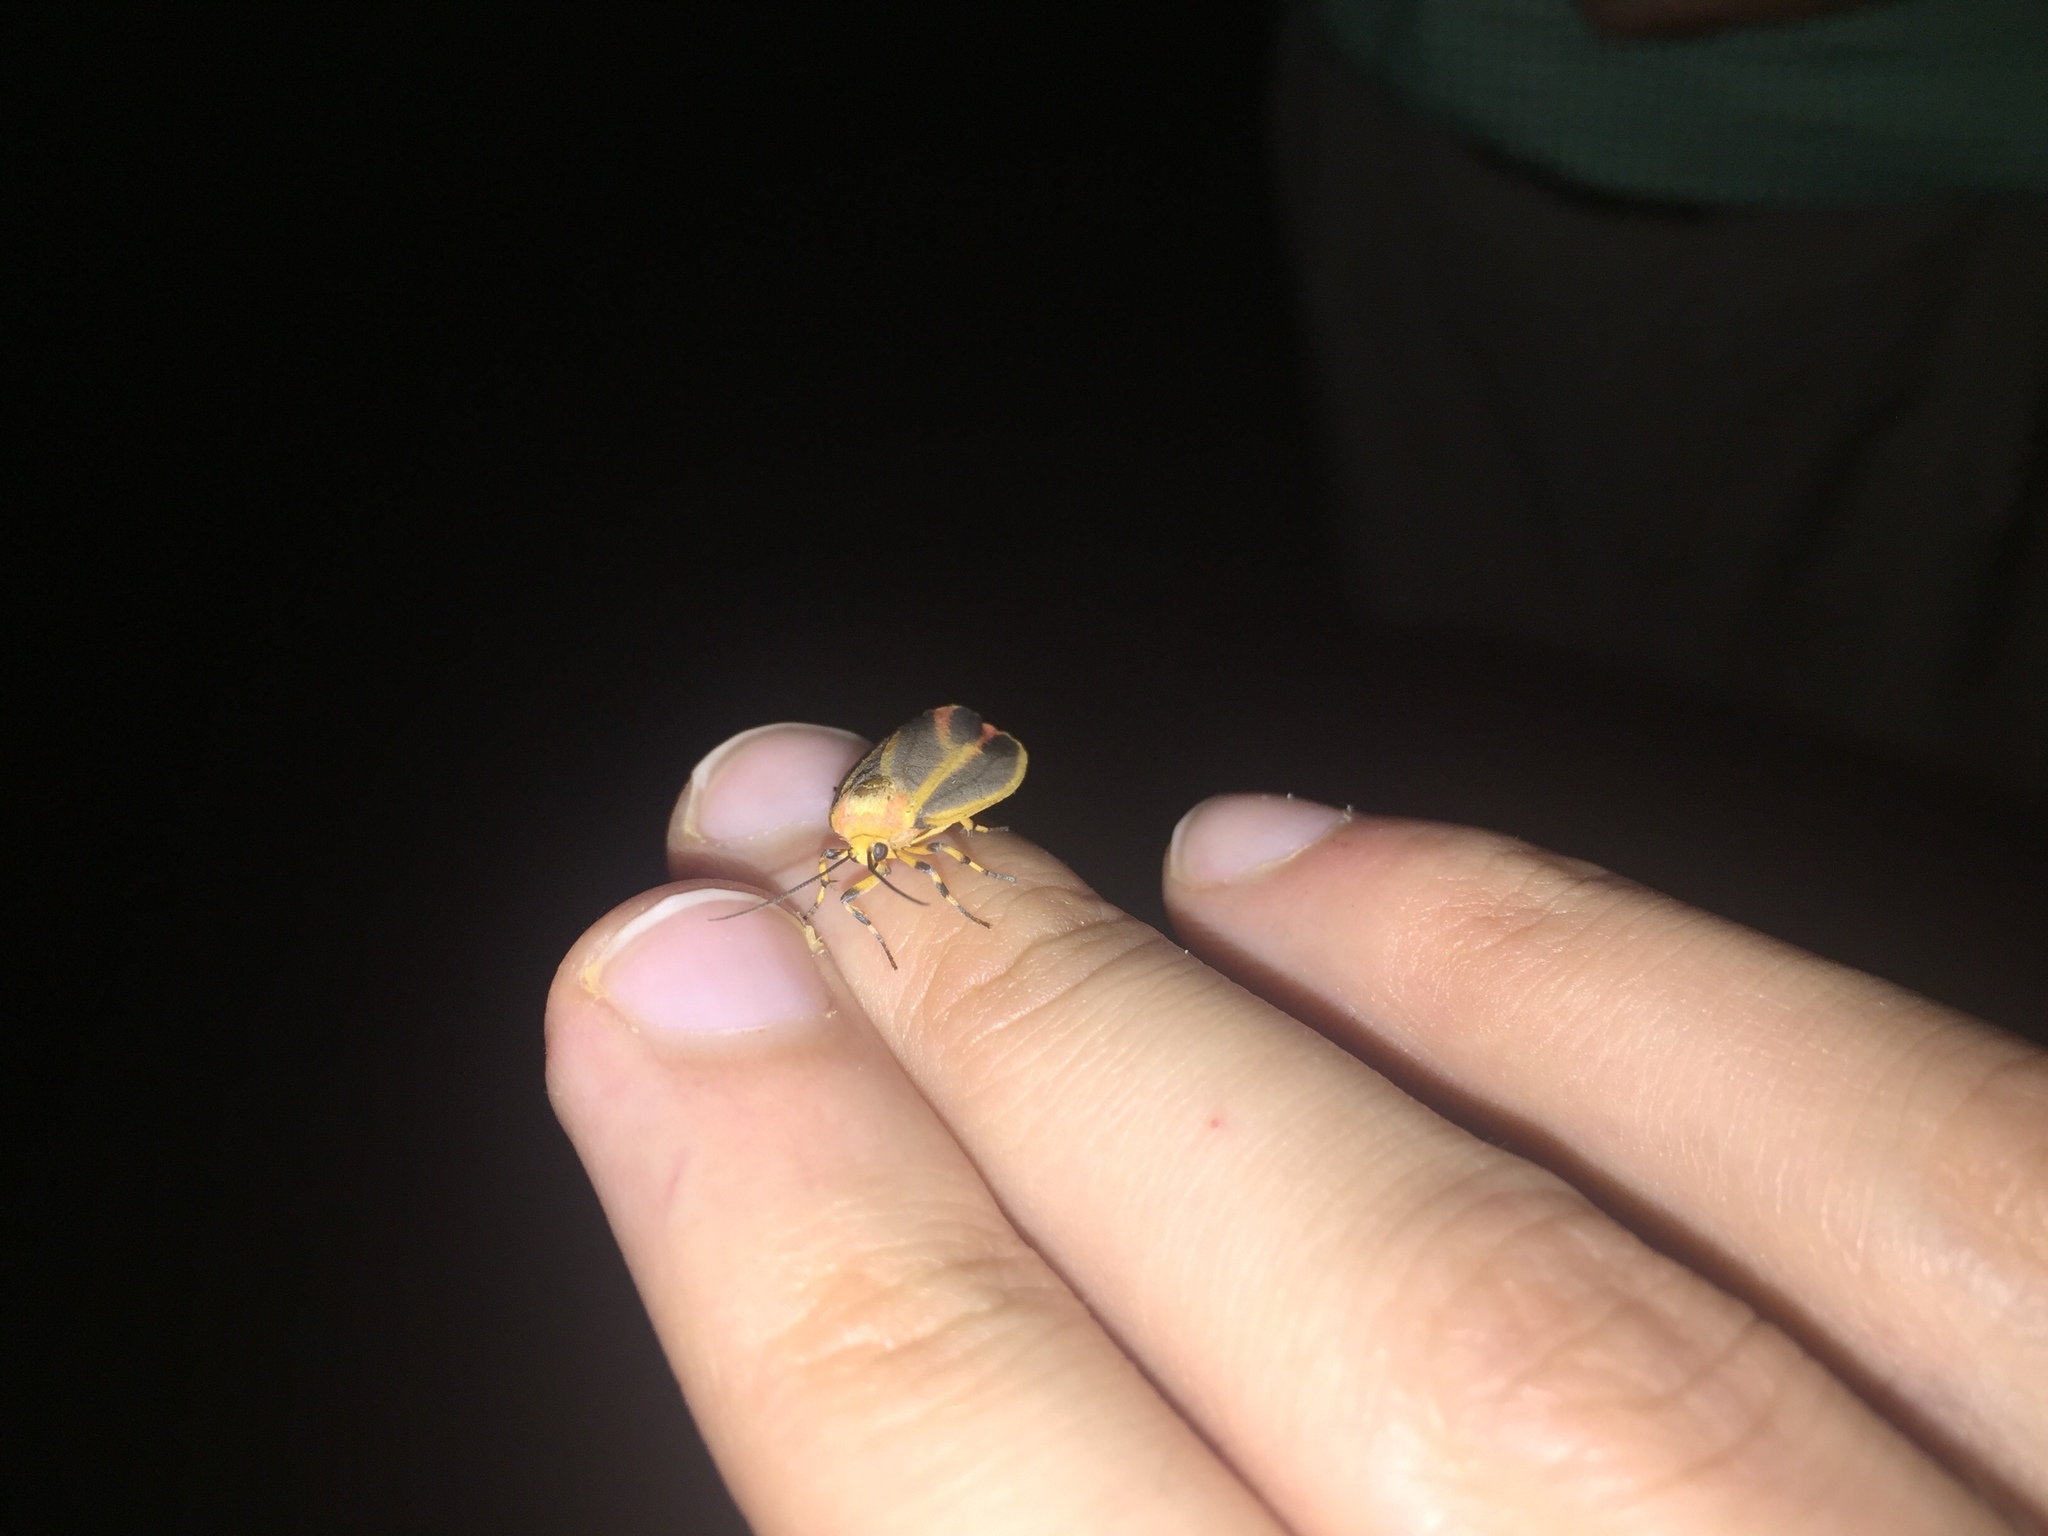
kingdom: Animalia
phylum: Arthropoda
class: Insecta
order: Lepidoptera
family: Erebidae
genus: Hypoprepia
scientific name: Hypoprepia fucosa
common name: Painted lichen moth
